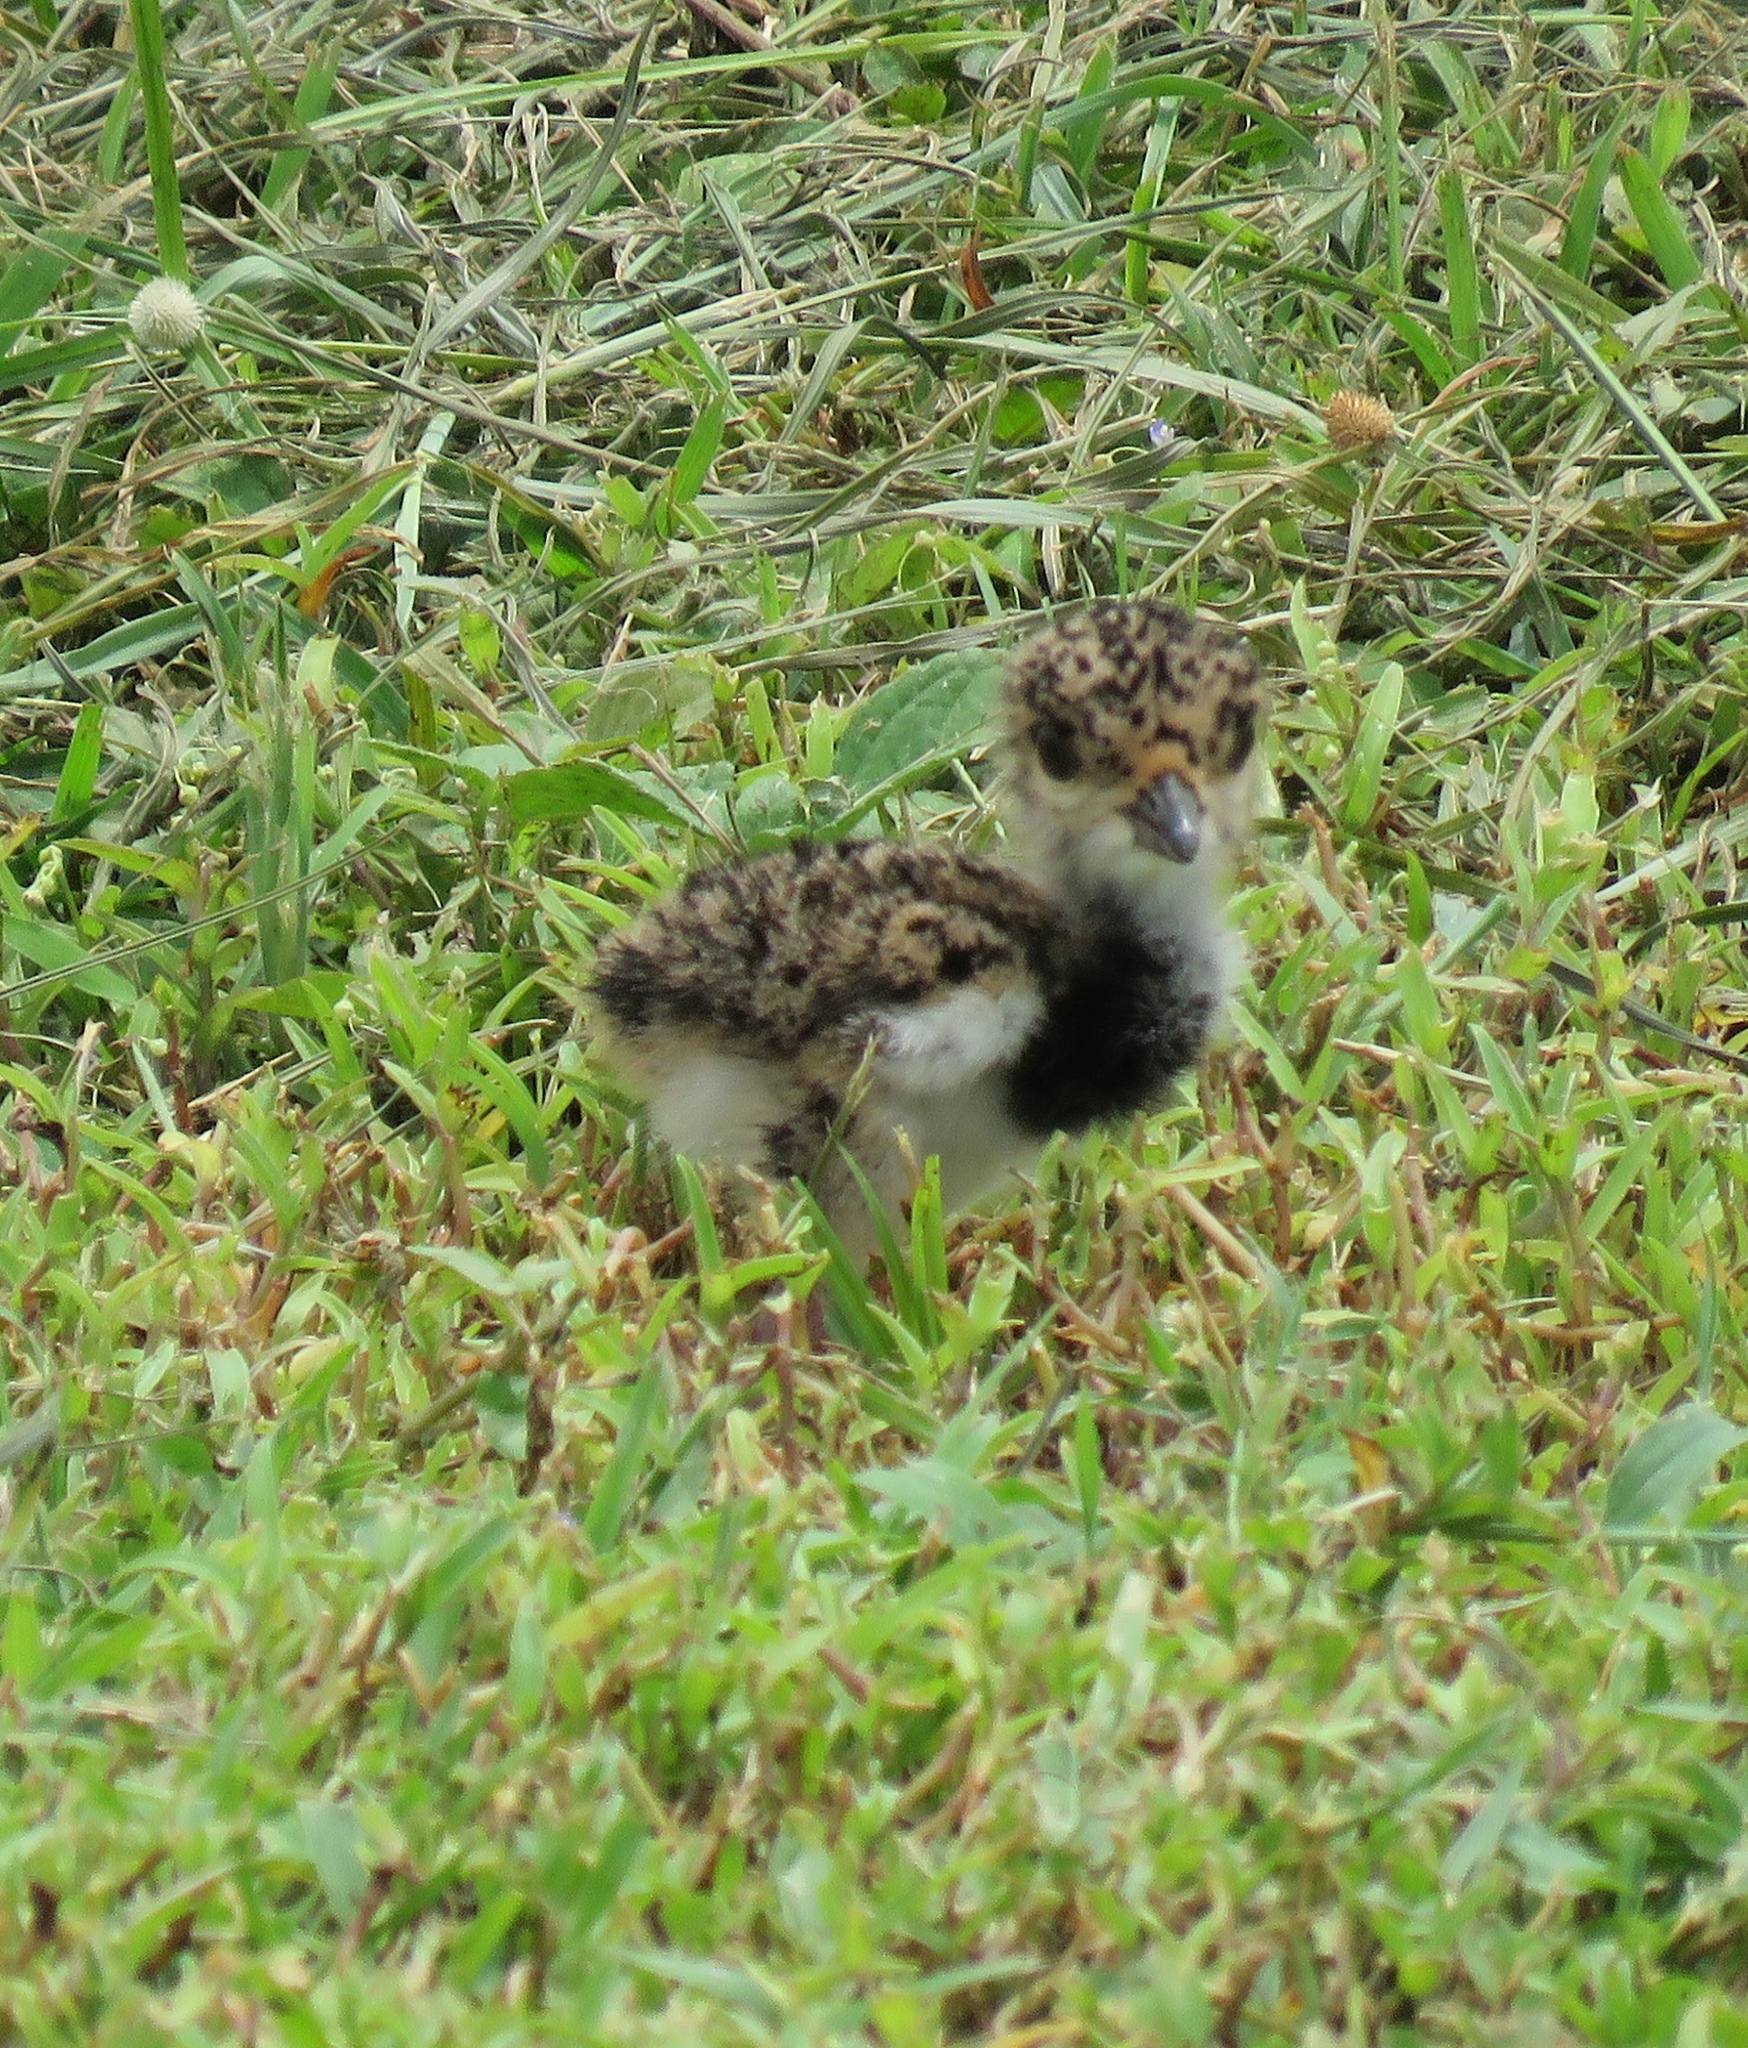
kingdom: Animalia
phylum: Chordata
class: Aves
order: Charadriiformes
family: Charadriidae
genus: Vanellus
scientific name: Vanellus chilensis
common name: Southern lapwing
